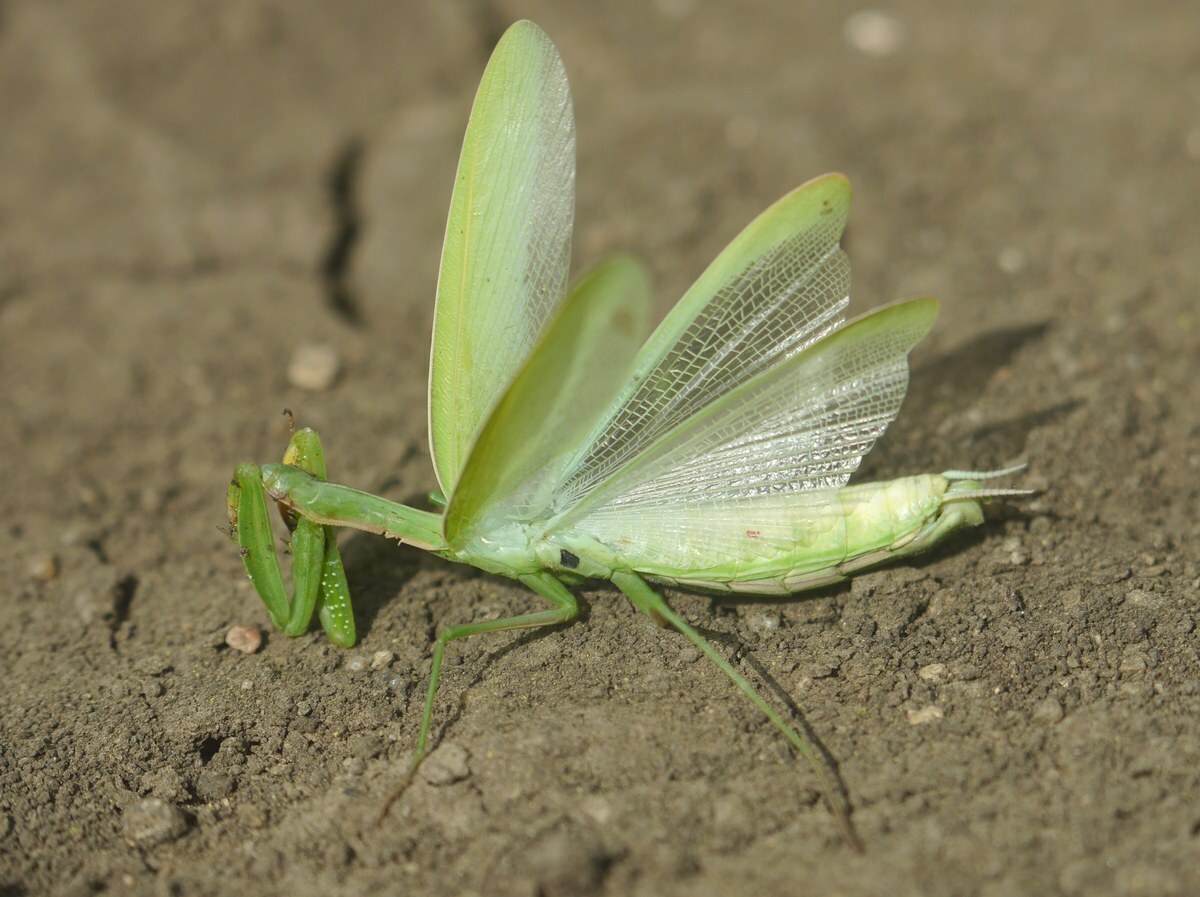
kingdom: Animalia
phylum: Arthropoda
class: Insecta
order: Mantodea
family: Mantidae
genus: Mantis
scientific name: Mantis religiosa
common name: Praying mantis
